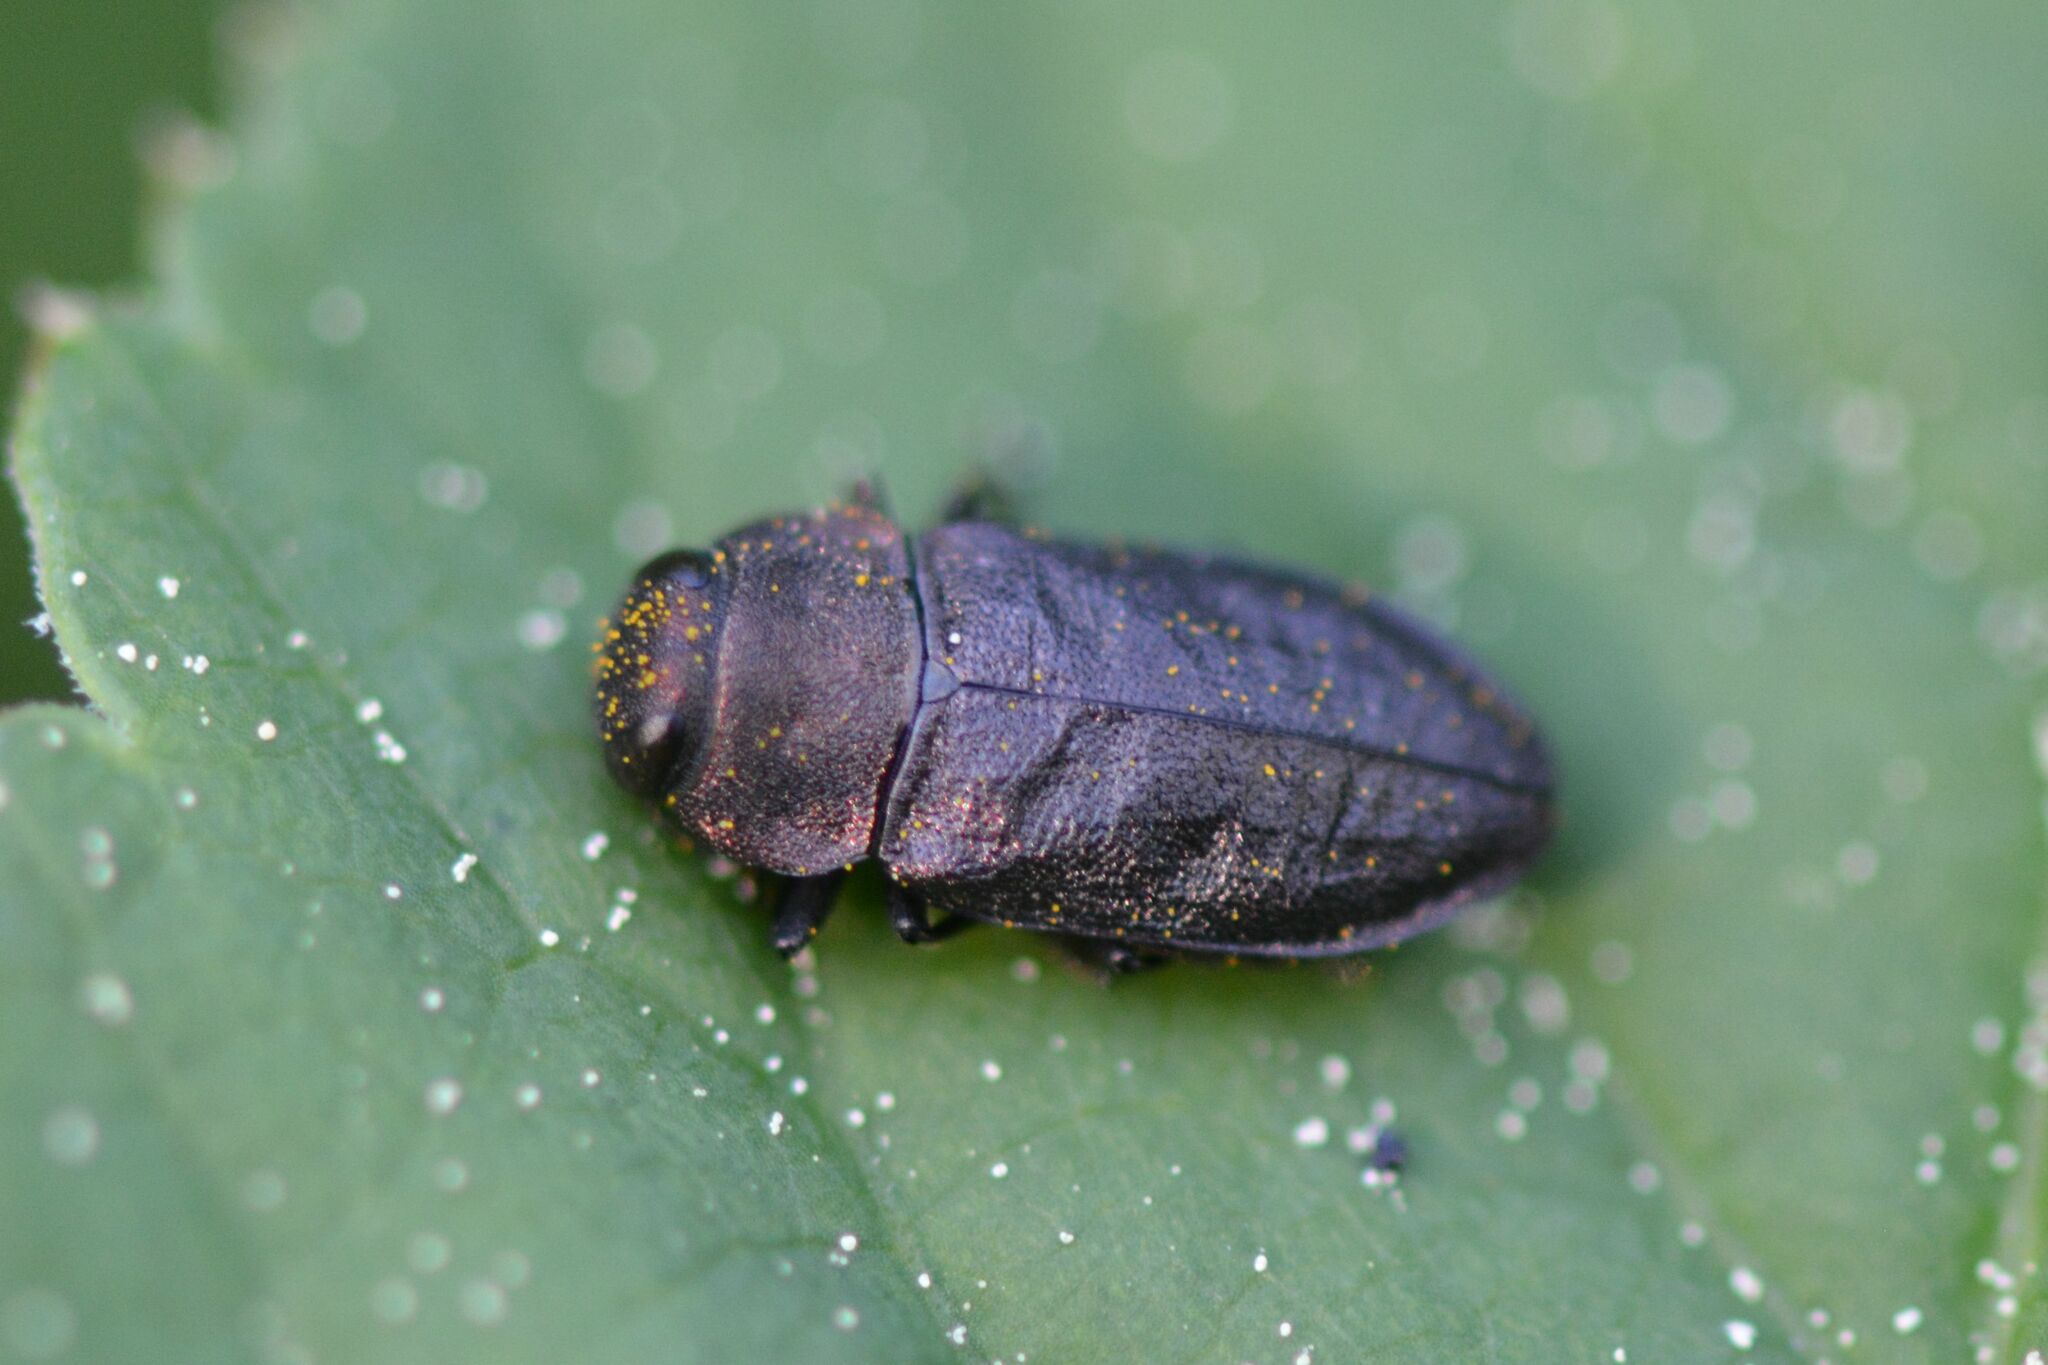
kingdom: Animalia
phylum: Arthropoda
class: Insecta
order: Coleoptera
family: Buprestidae
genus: Anthaxia
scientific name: Anthaxia helvetica
